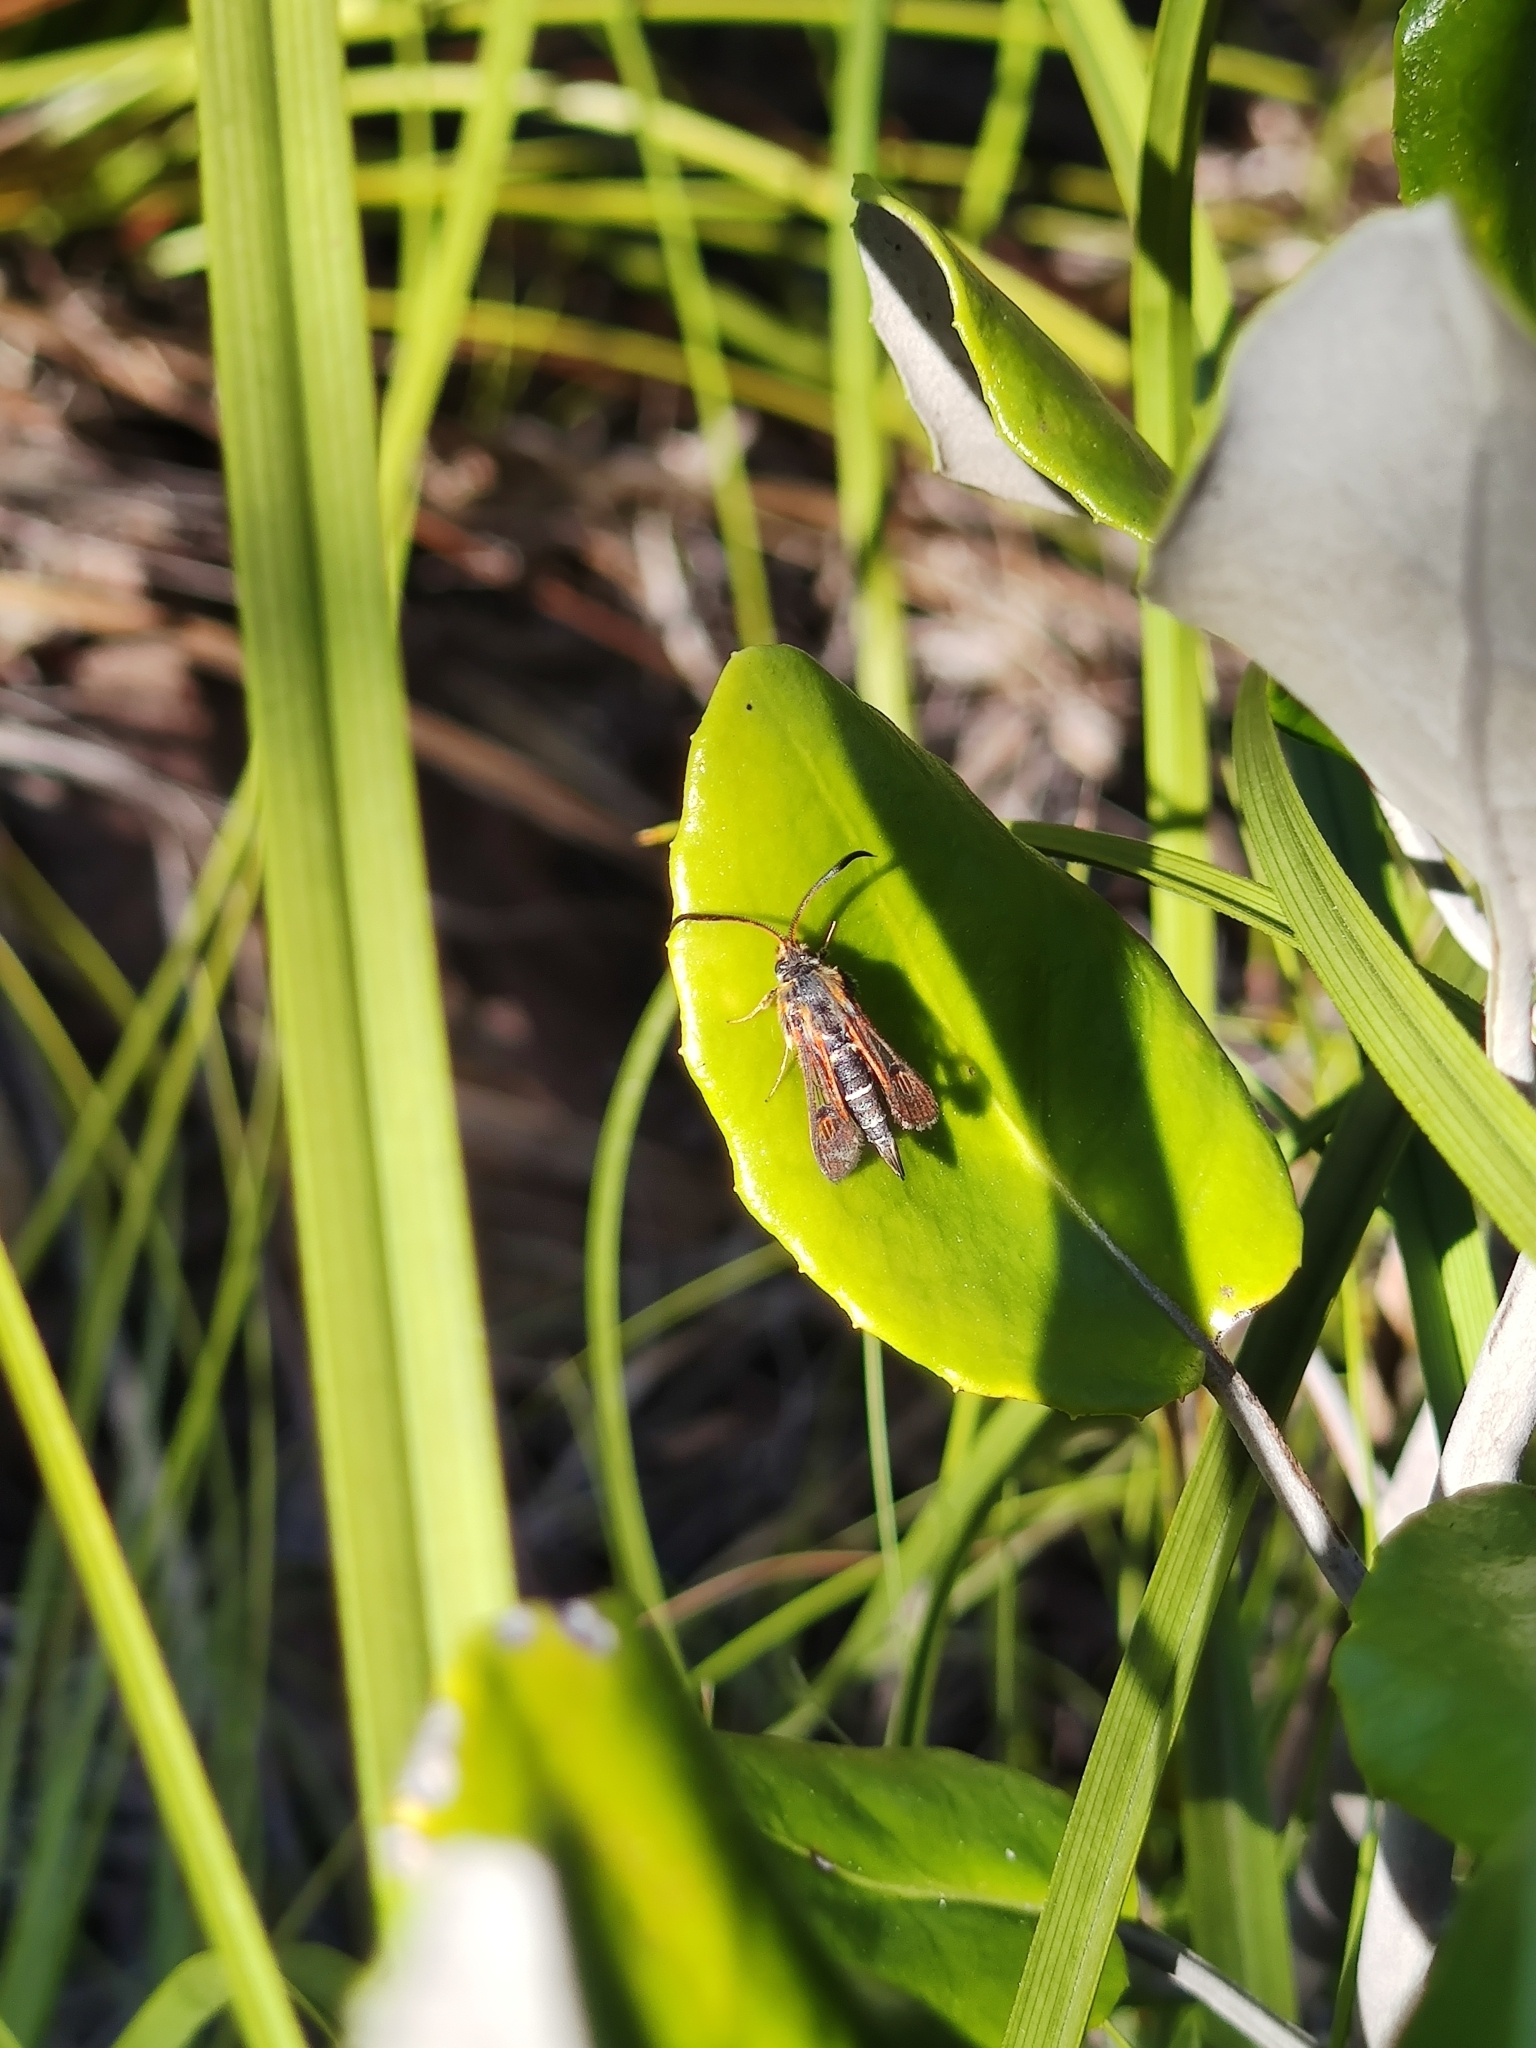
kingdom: Animalia
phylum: Arthropoda
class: Insecta
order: Lepidoptera
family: Sesiidae
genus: Alonina
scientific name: Alonina pyrocraspis
